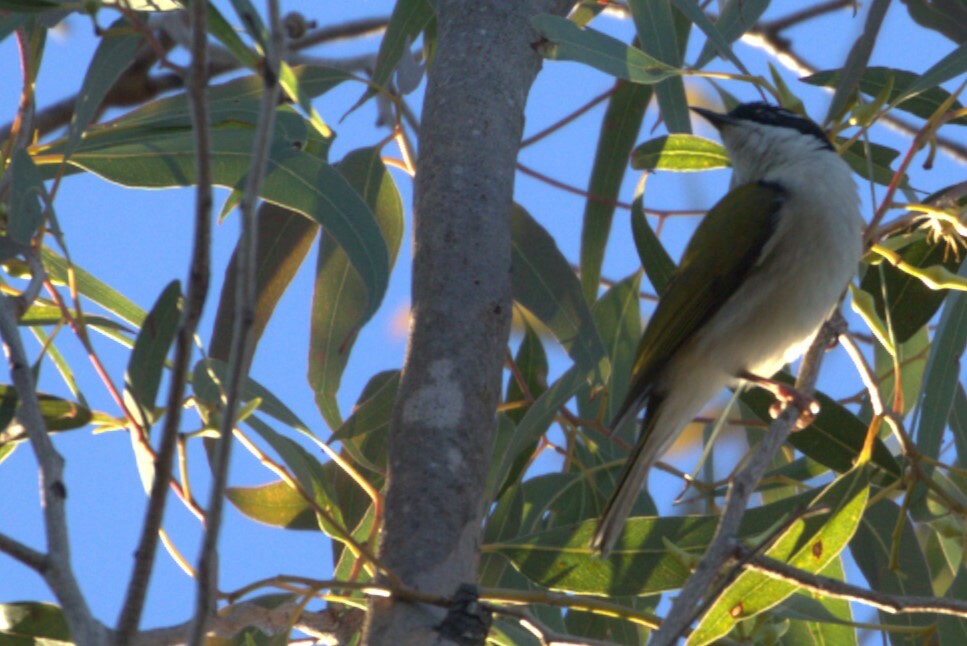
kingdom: Animalia
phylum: Chordata
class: Aves
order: Passeriformes
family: Meliphagidae
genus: Melithreptus
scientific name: Melithreptus albogularis
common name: White-throated honeyeater
